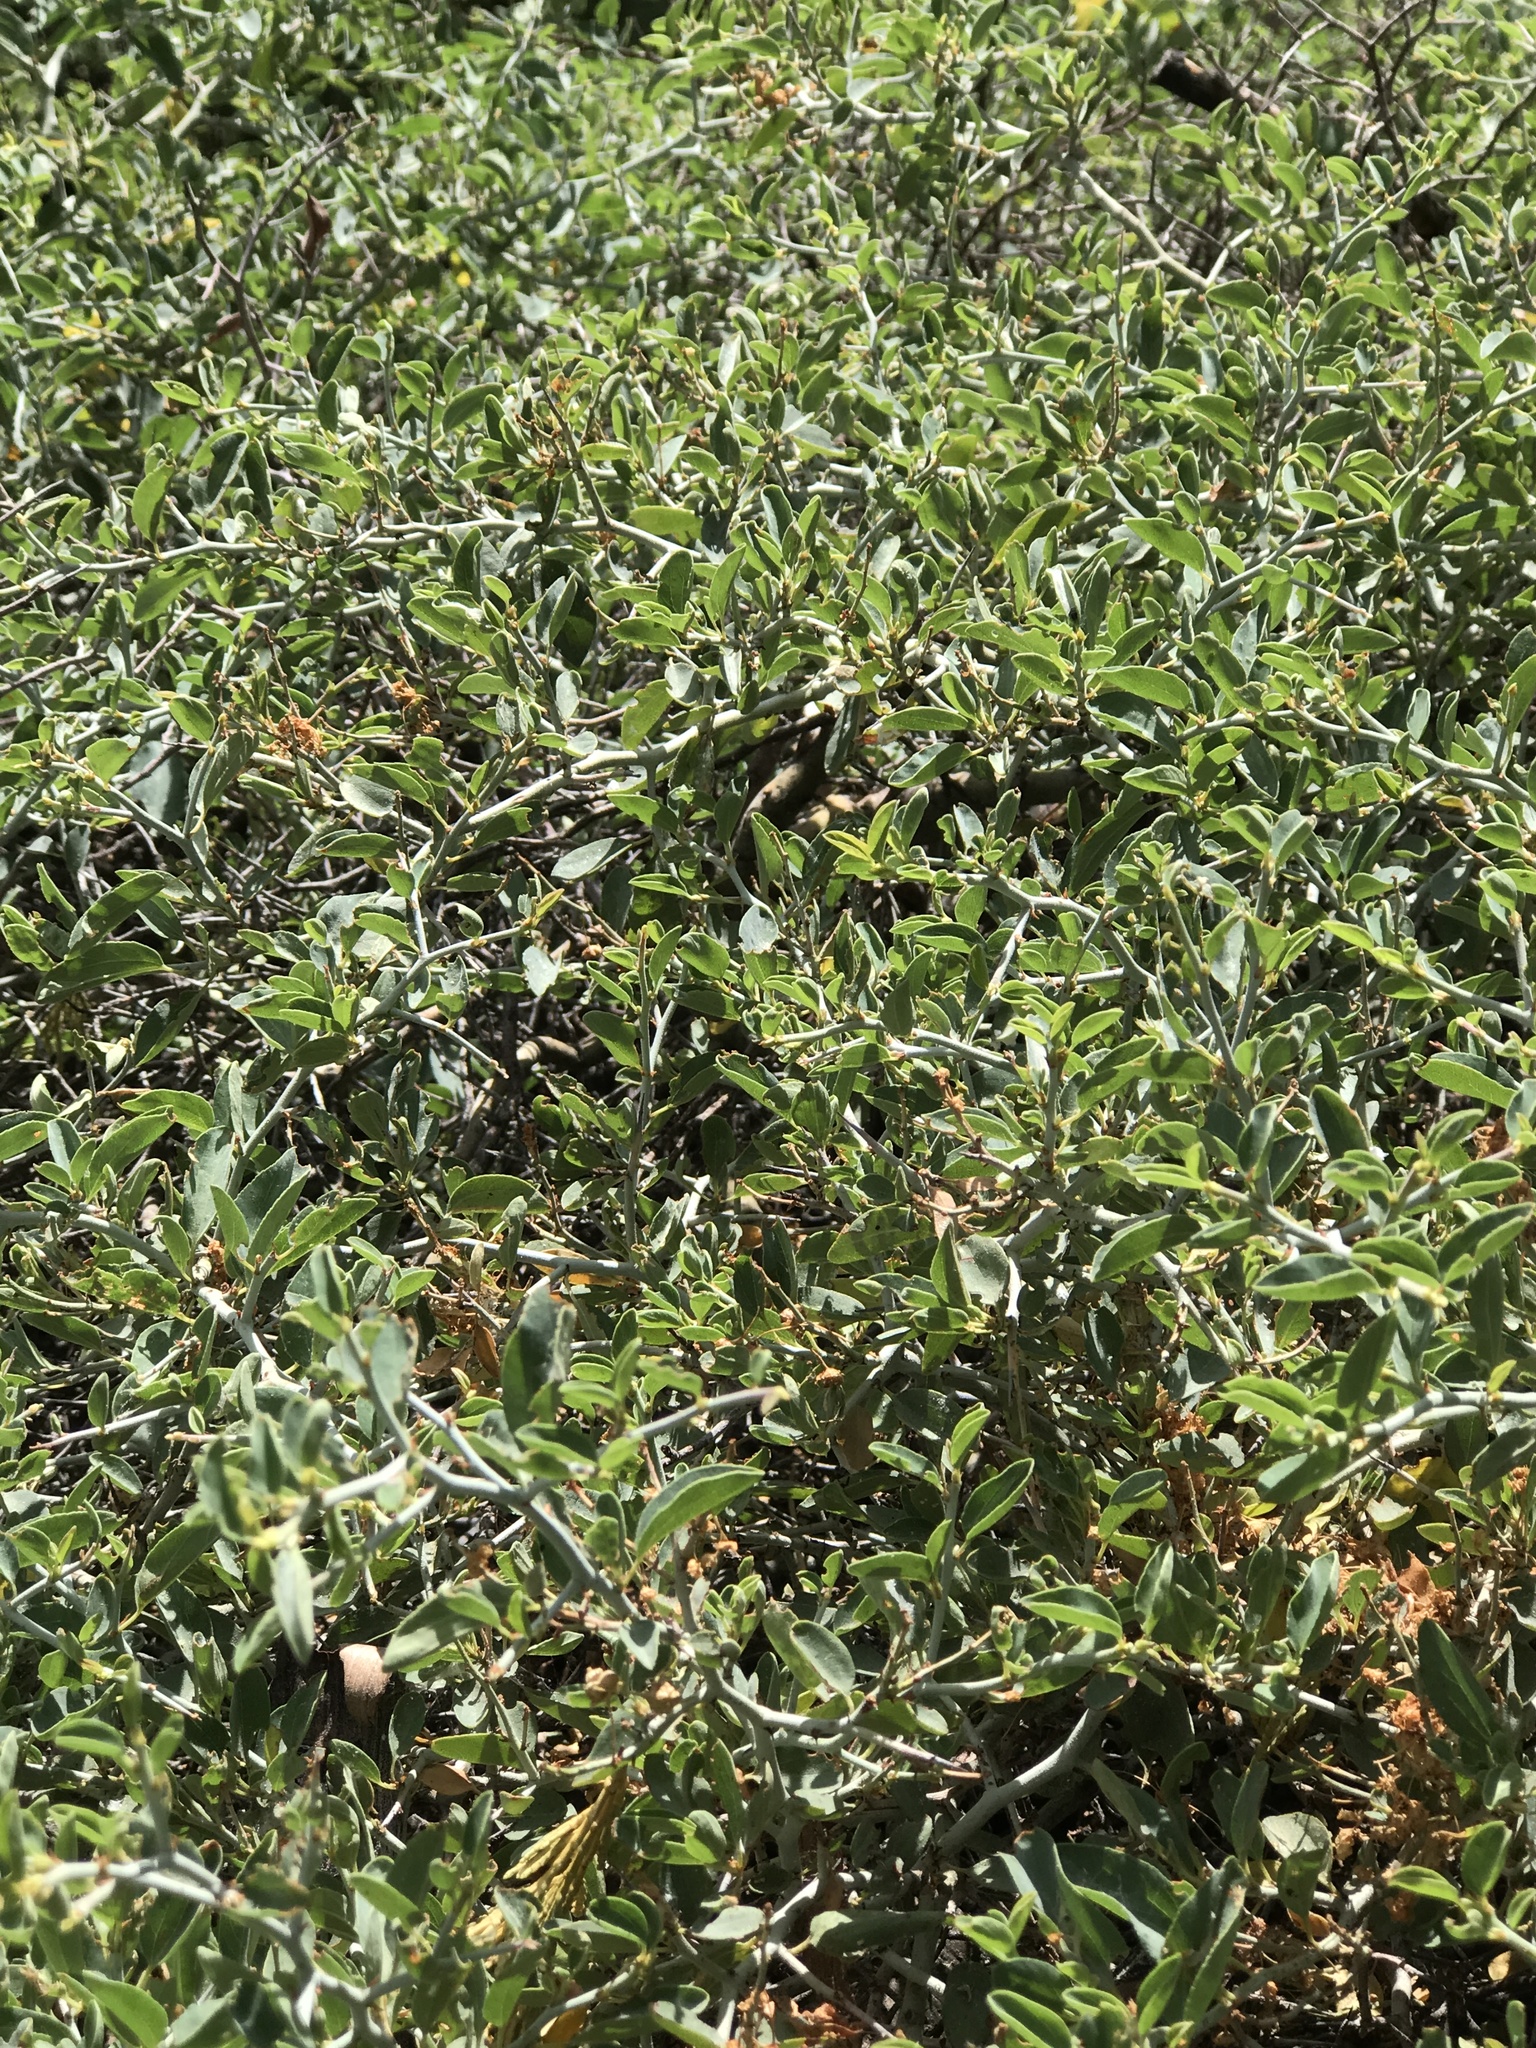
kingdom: Plantae
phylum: Tracheophyta
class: Magnoliopsida
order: Rosales
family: Rhamnaceae
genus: Ceanothus
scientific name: Ceanothus cordulatus
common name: Mountain whitethorn
